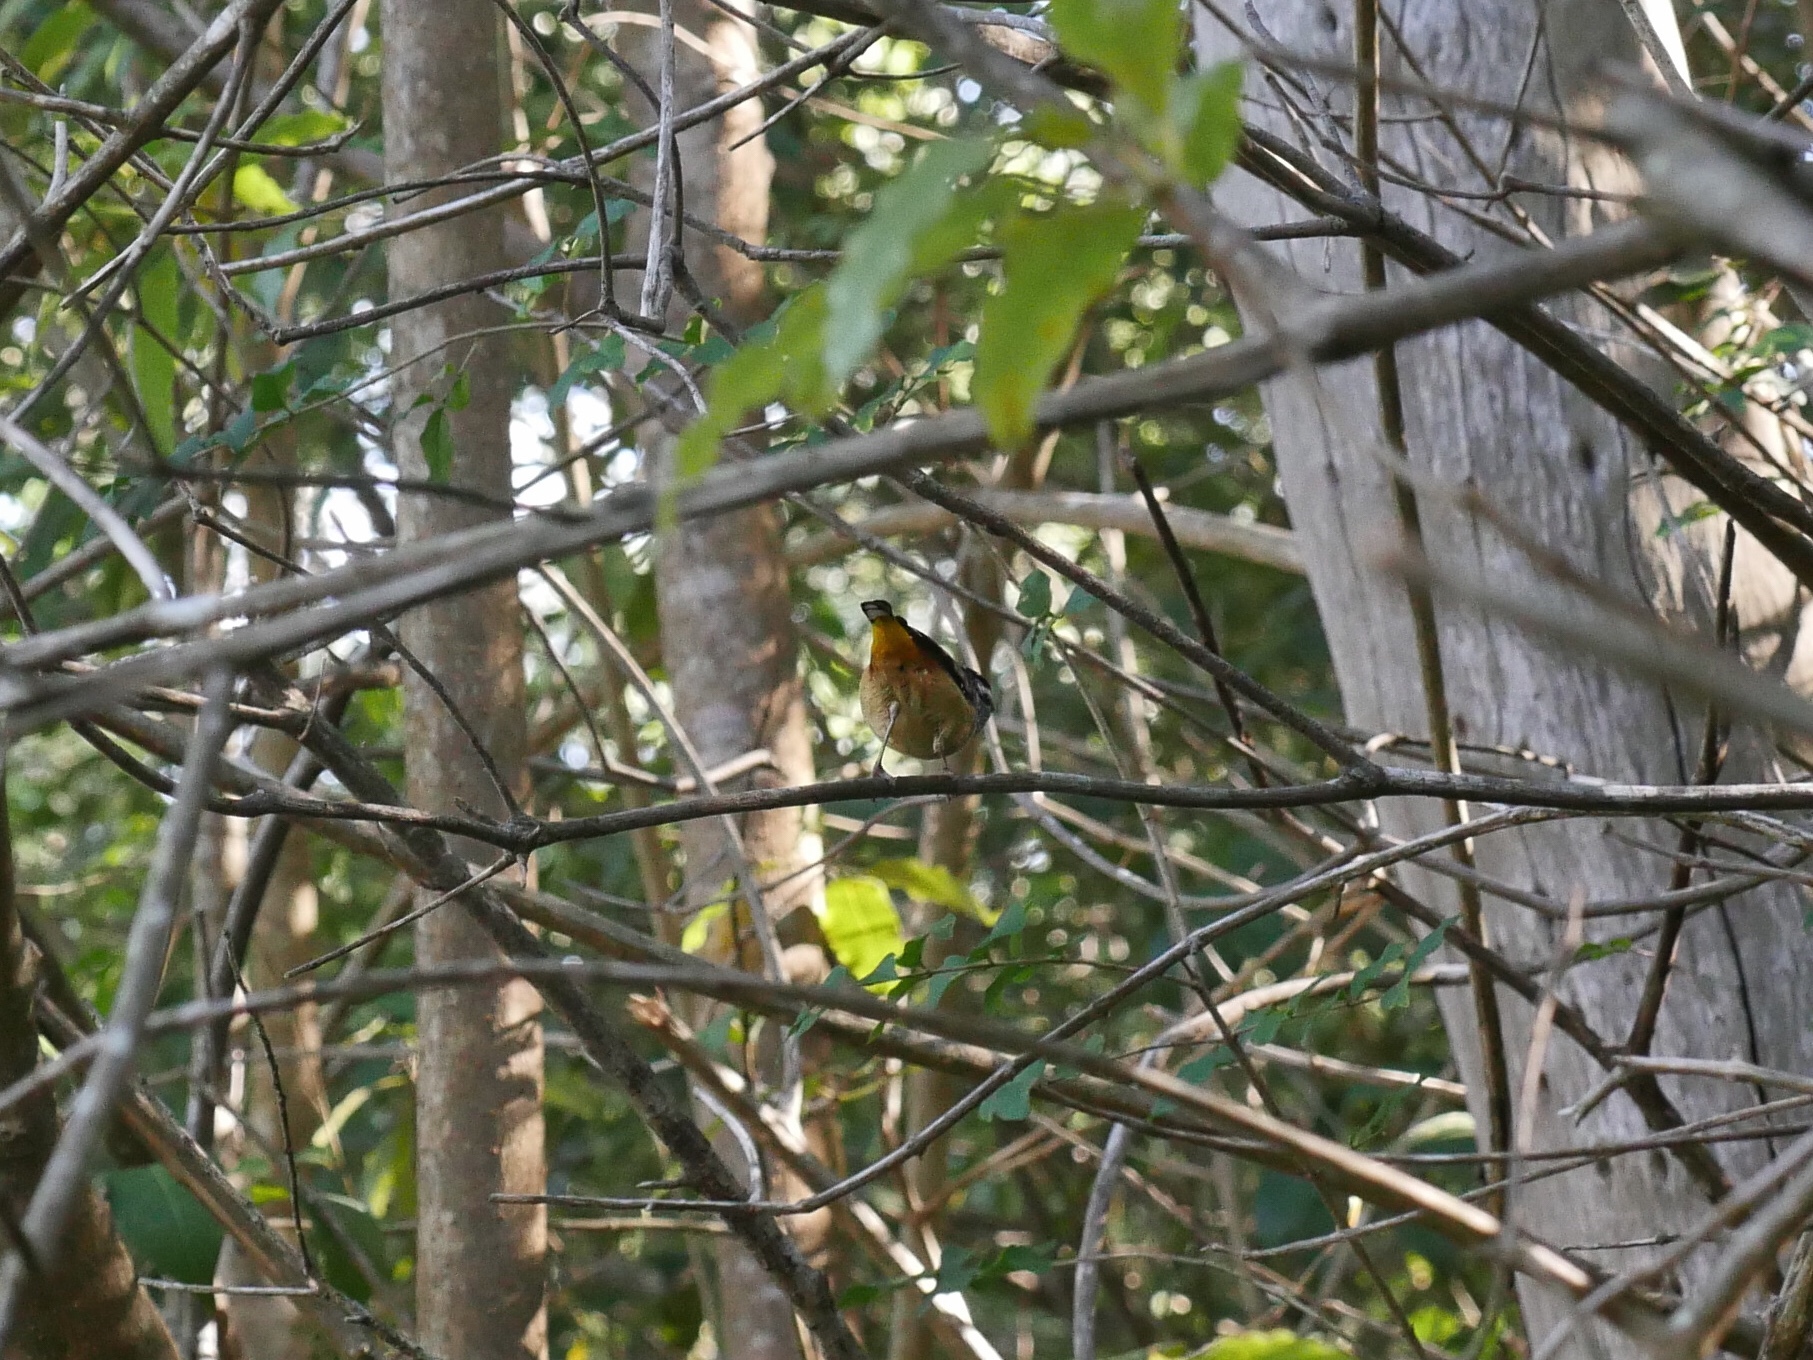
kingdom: Animalia
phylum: Chordata
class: Aves
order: Passeriformes
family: Pardalotidae
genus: Pardalotus
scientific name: Pardalotus punctatus
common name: Spotted pardalote
